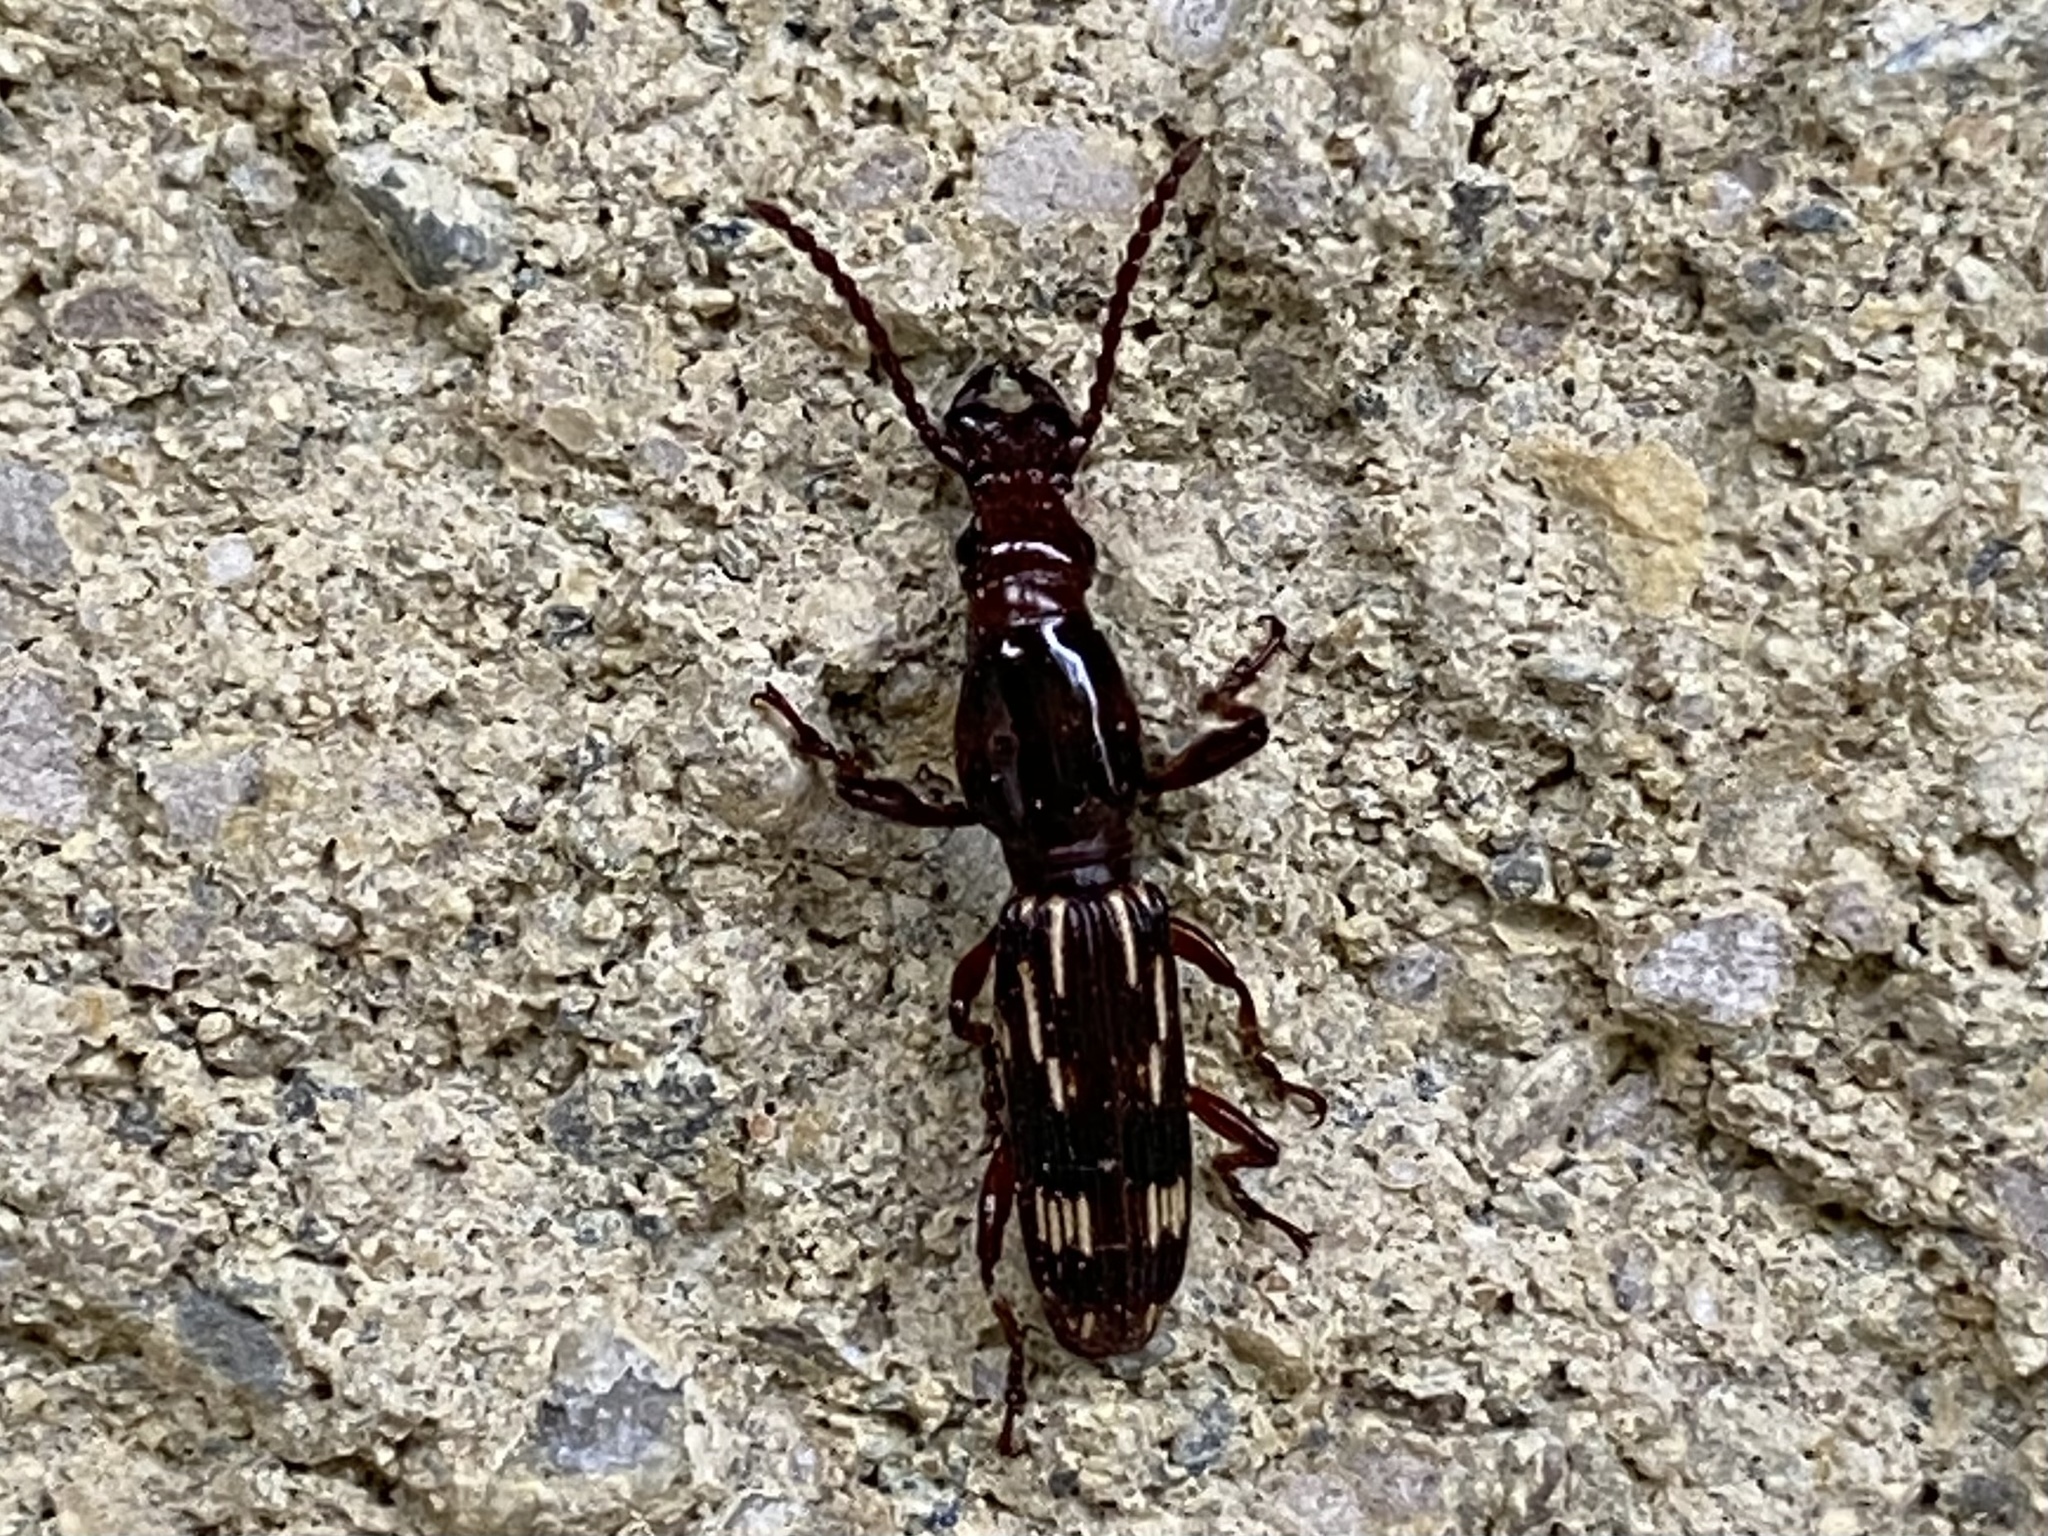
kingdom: Animalia
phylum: Arthropoda
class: Insecta
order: Coleoptera
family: Brentidae
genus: Arrenodes
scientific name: Arrenodes minutus
